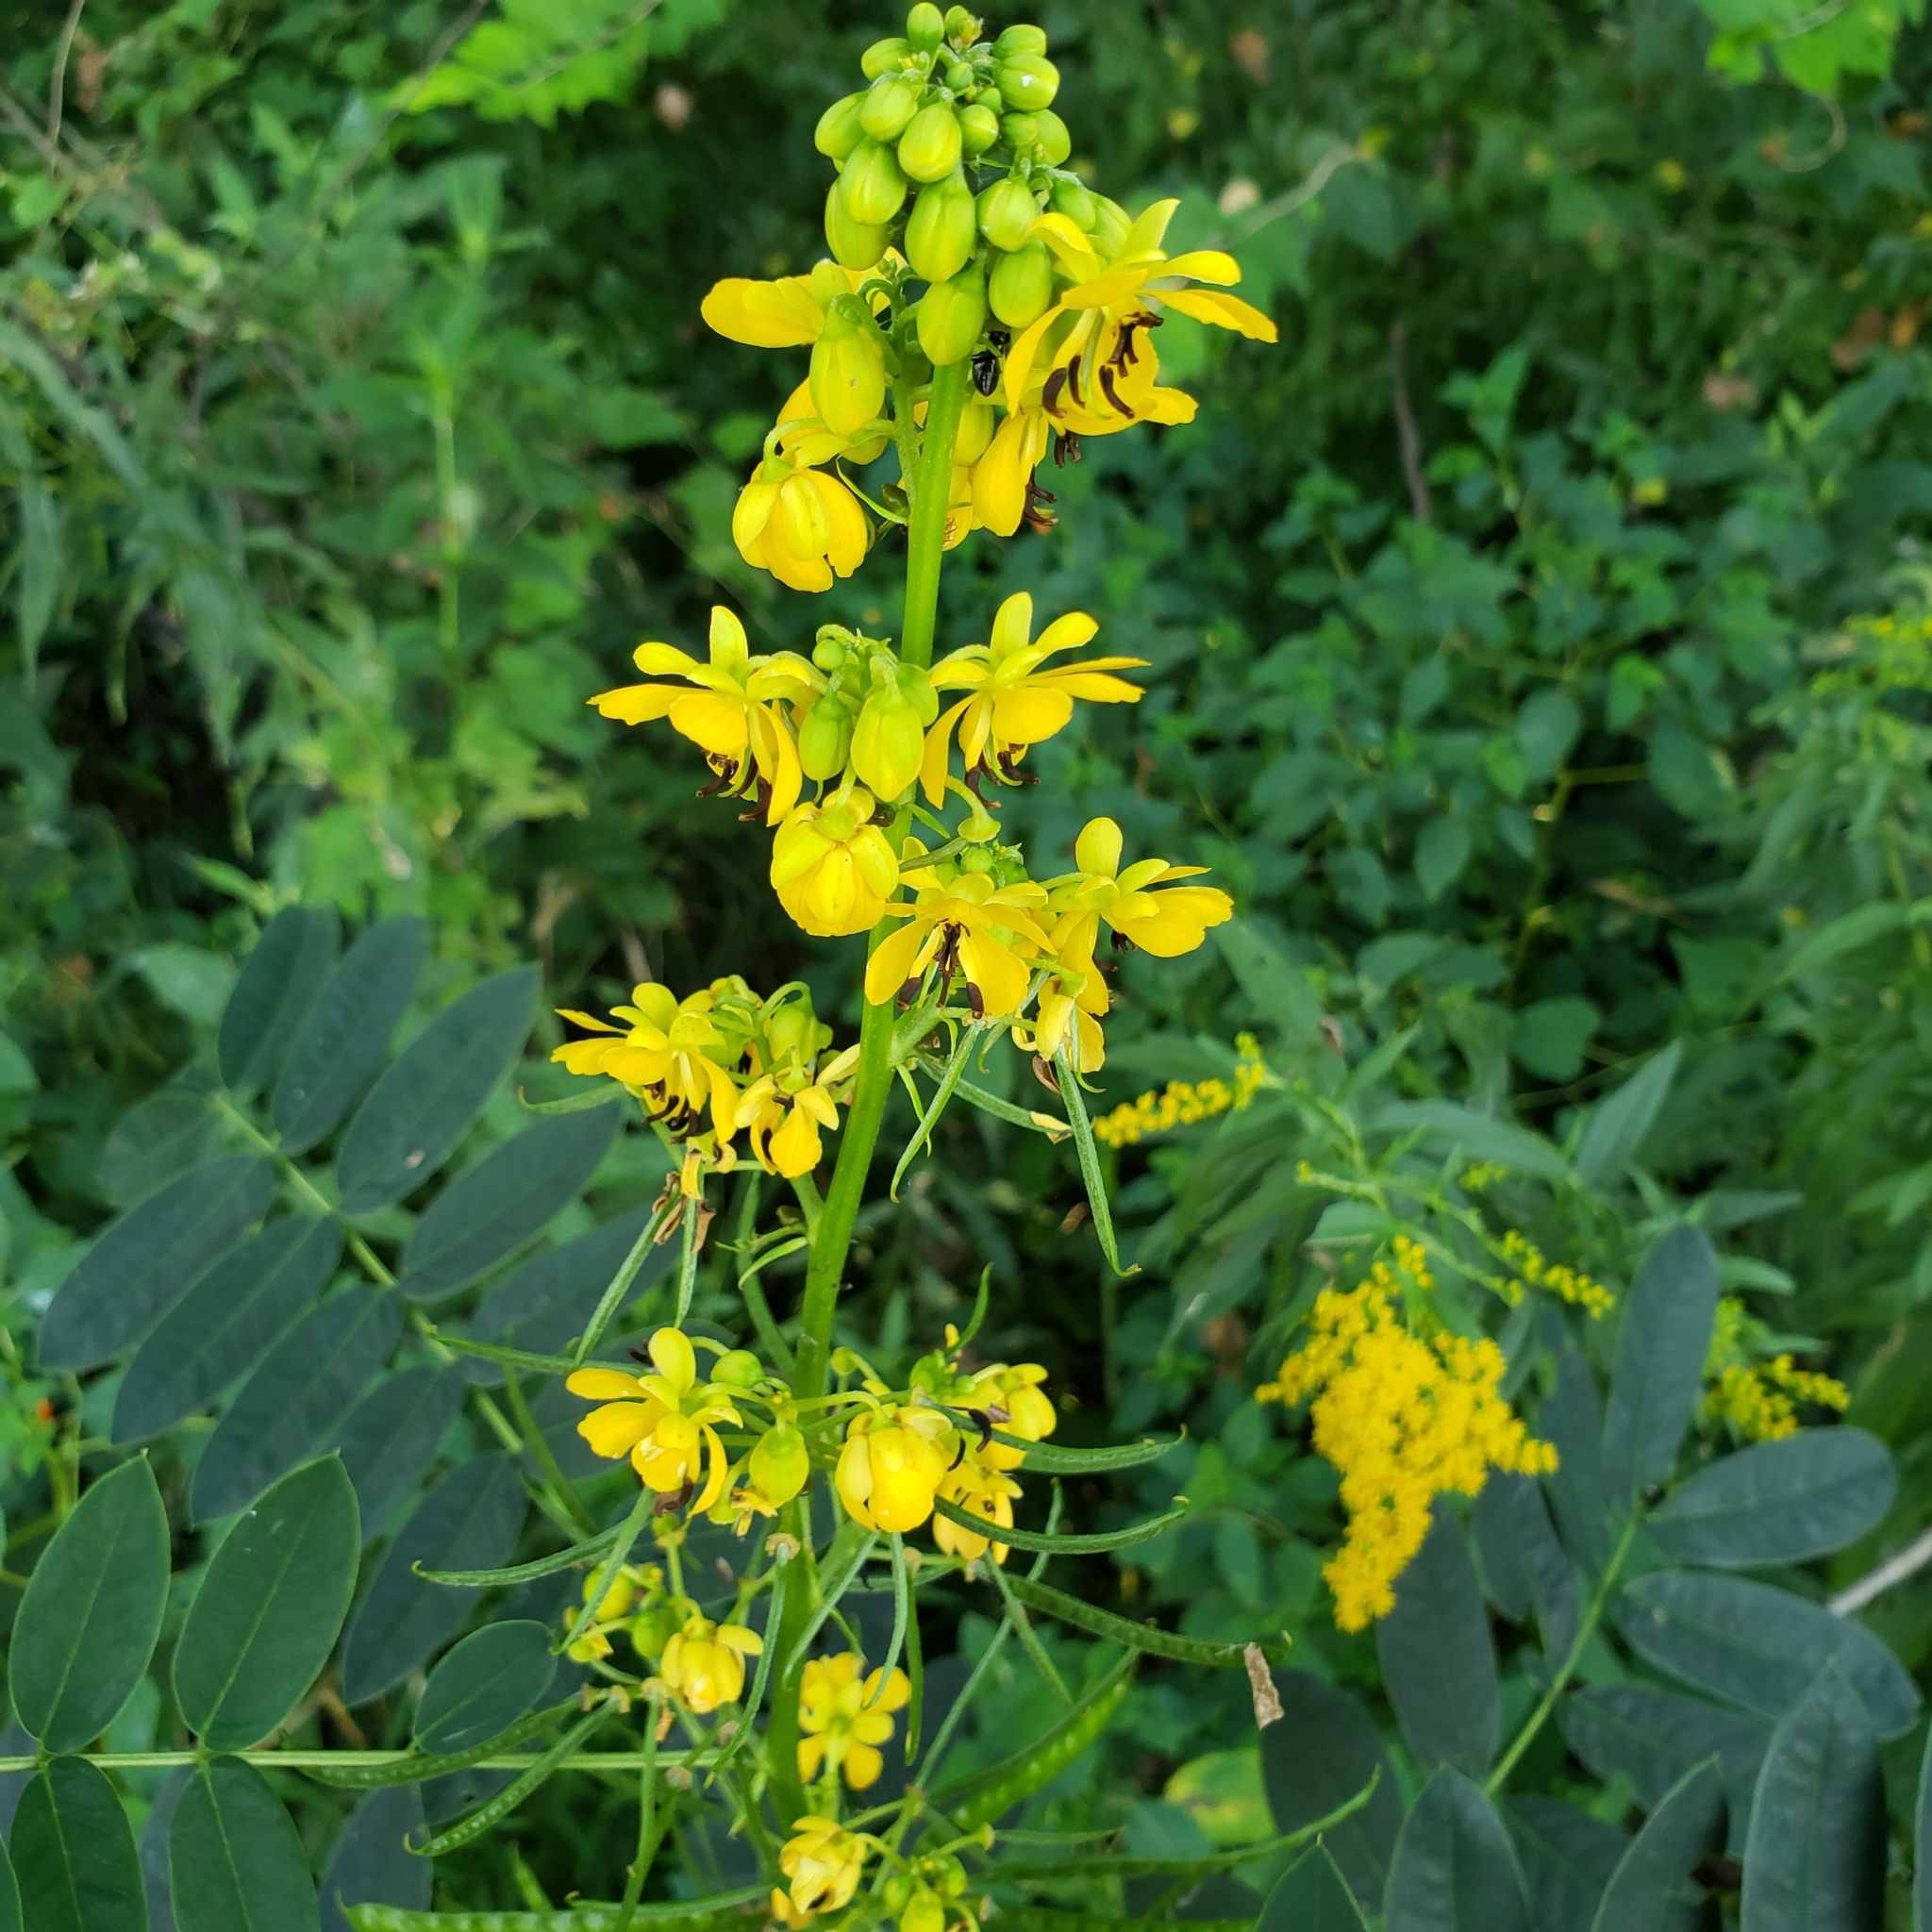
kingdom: Plantae
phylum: Tracheophyta
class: Magnoliopsida
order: Fabales
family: Fabaceae
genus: Senna
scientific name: Senna marilandica
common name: American senna
